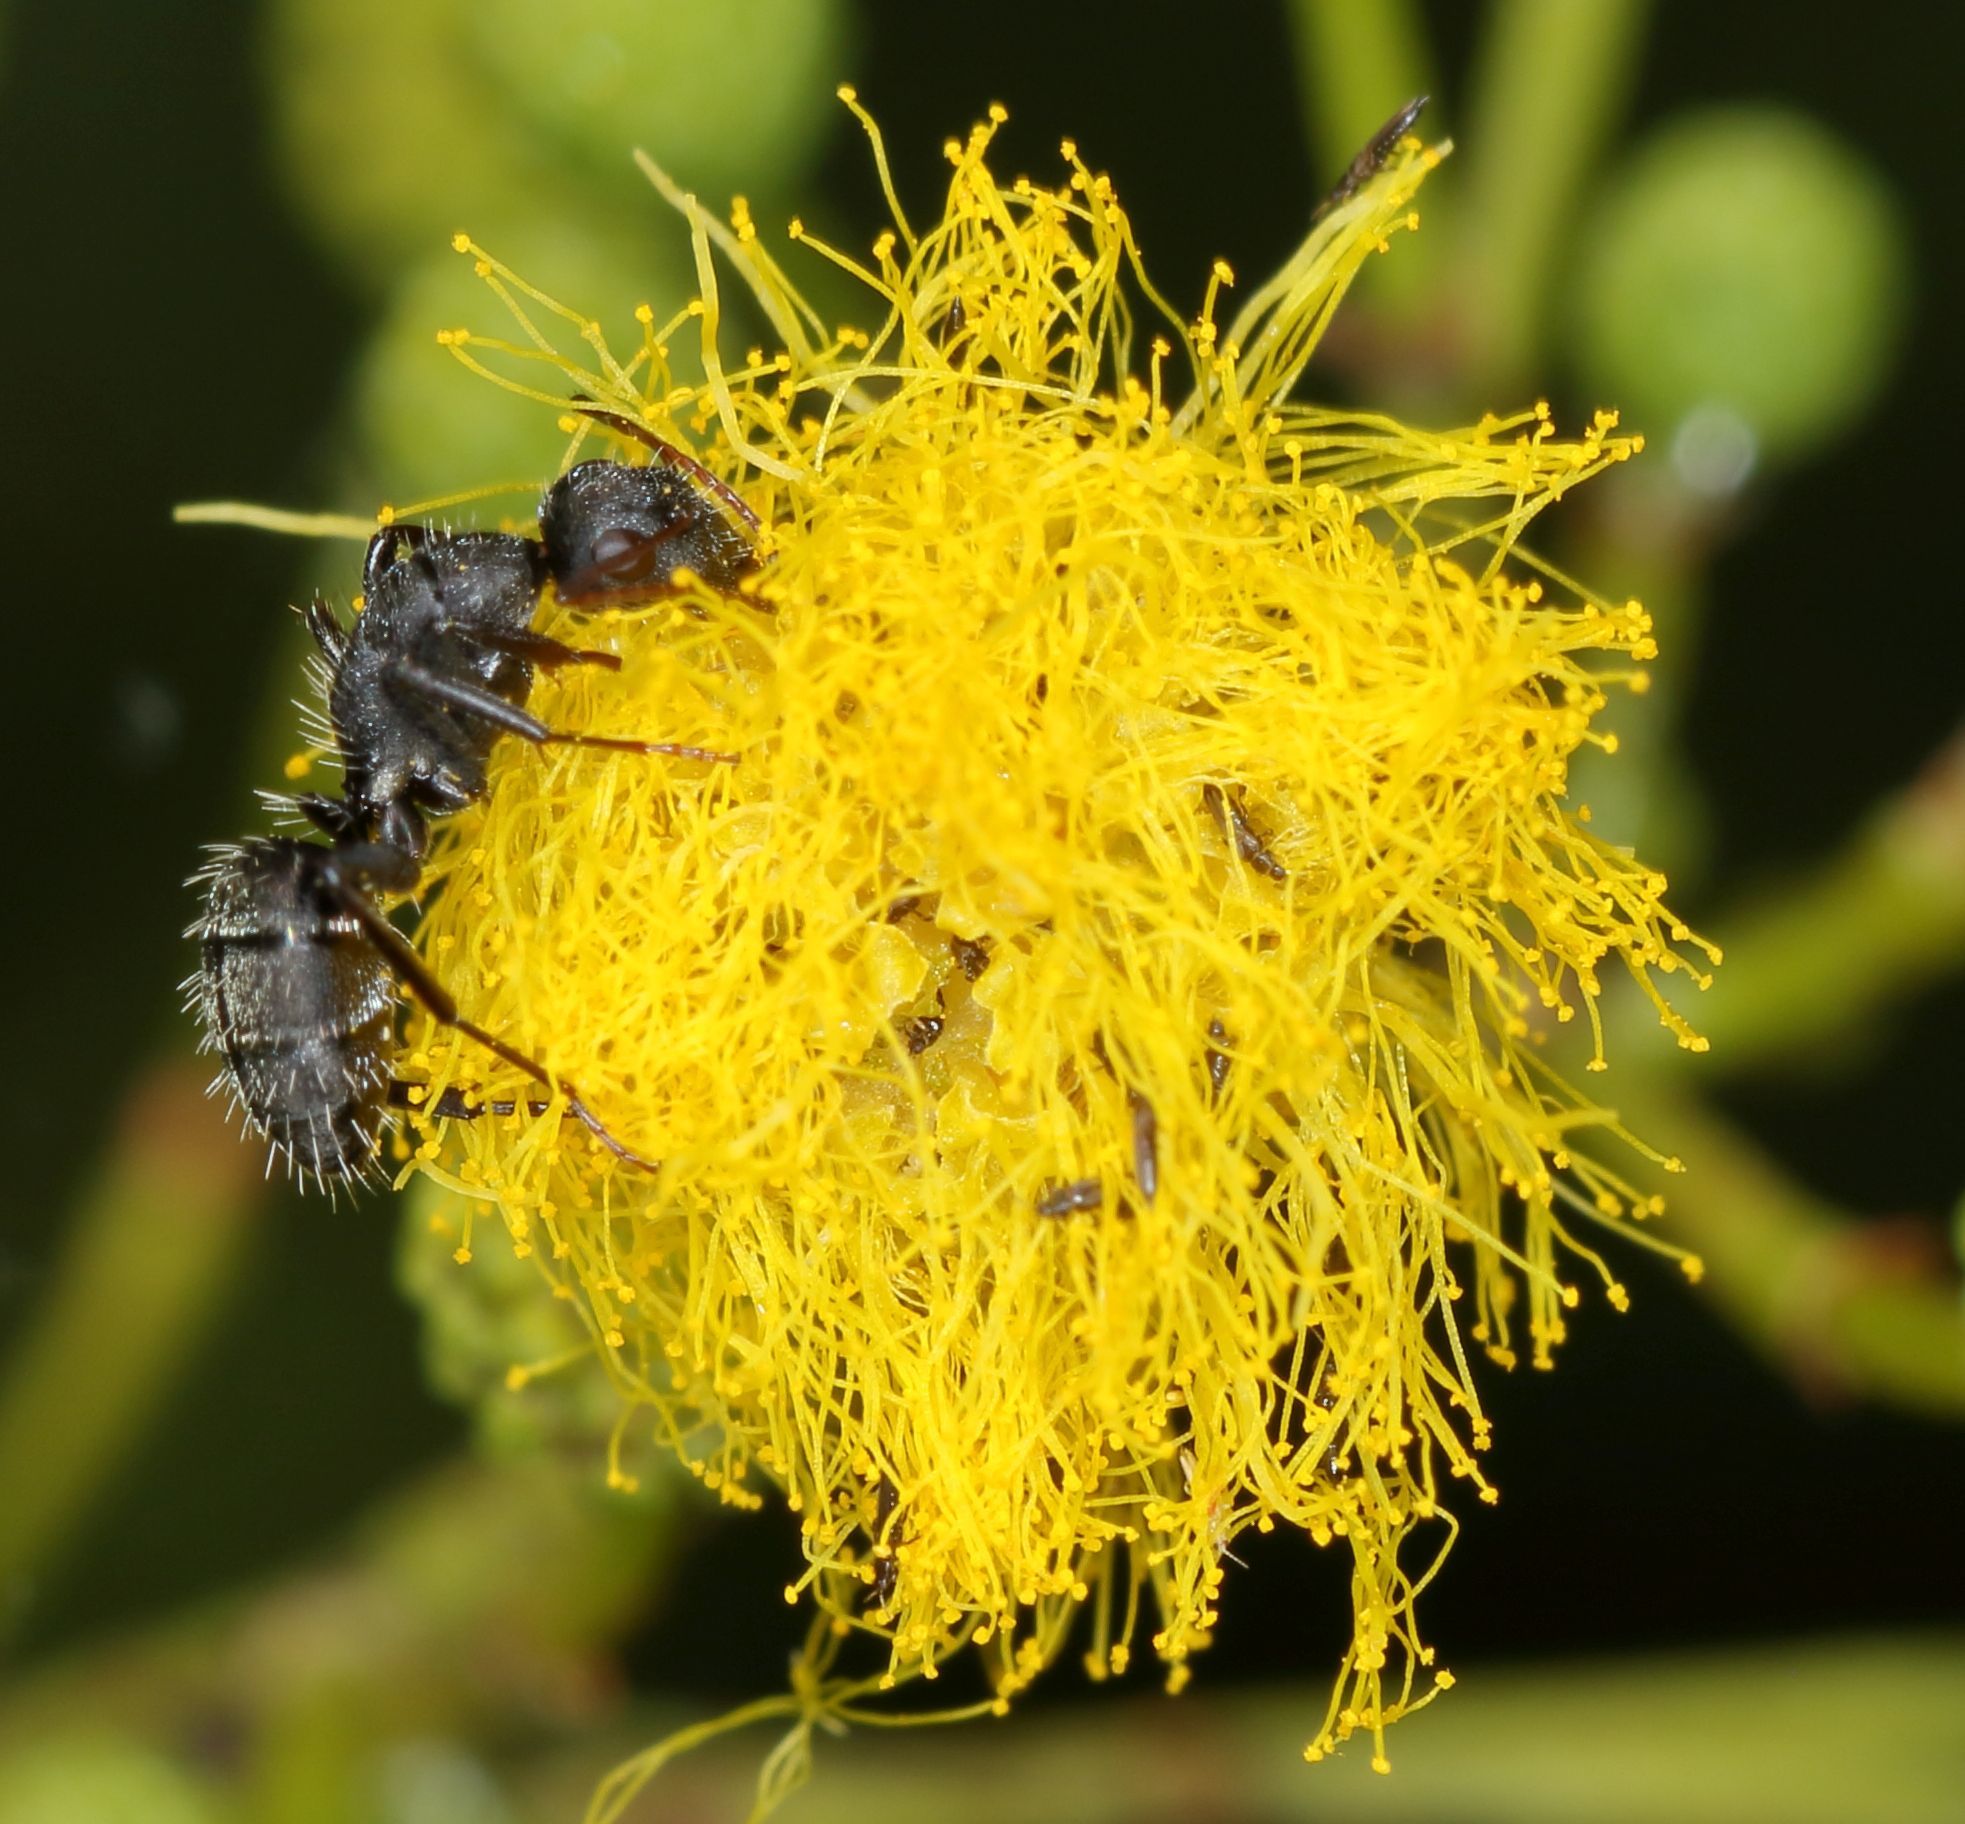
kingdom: Animalia
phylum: Arthropoda
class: Insecta
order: Hymenoptera
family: Formicidae
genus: Camponotus
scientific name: Camponotus auropubens
